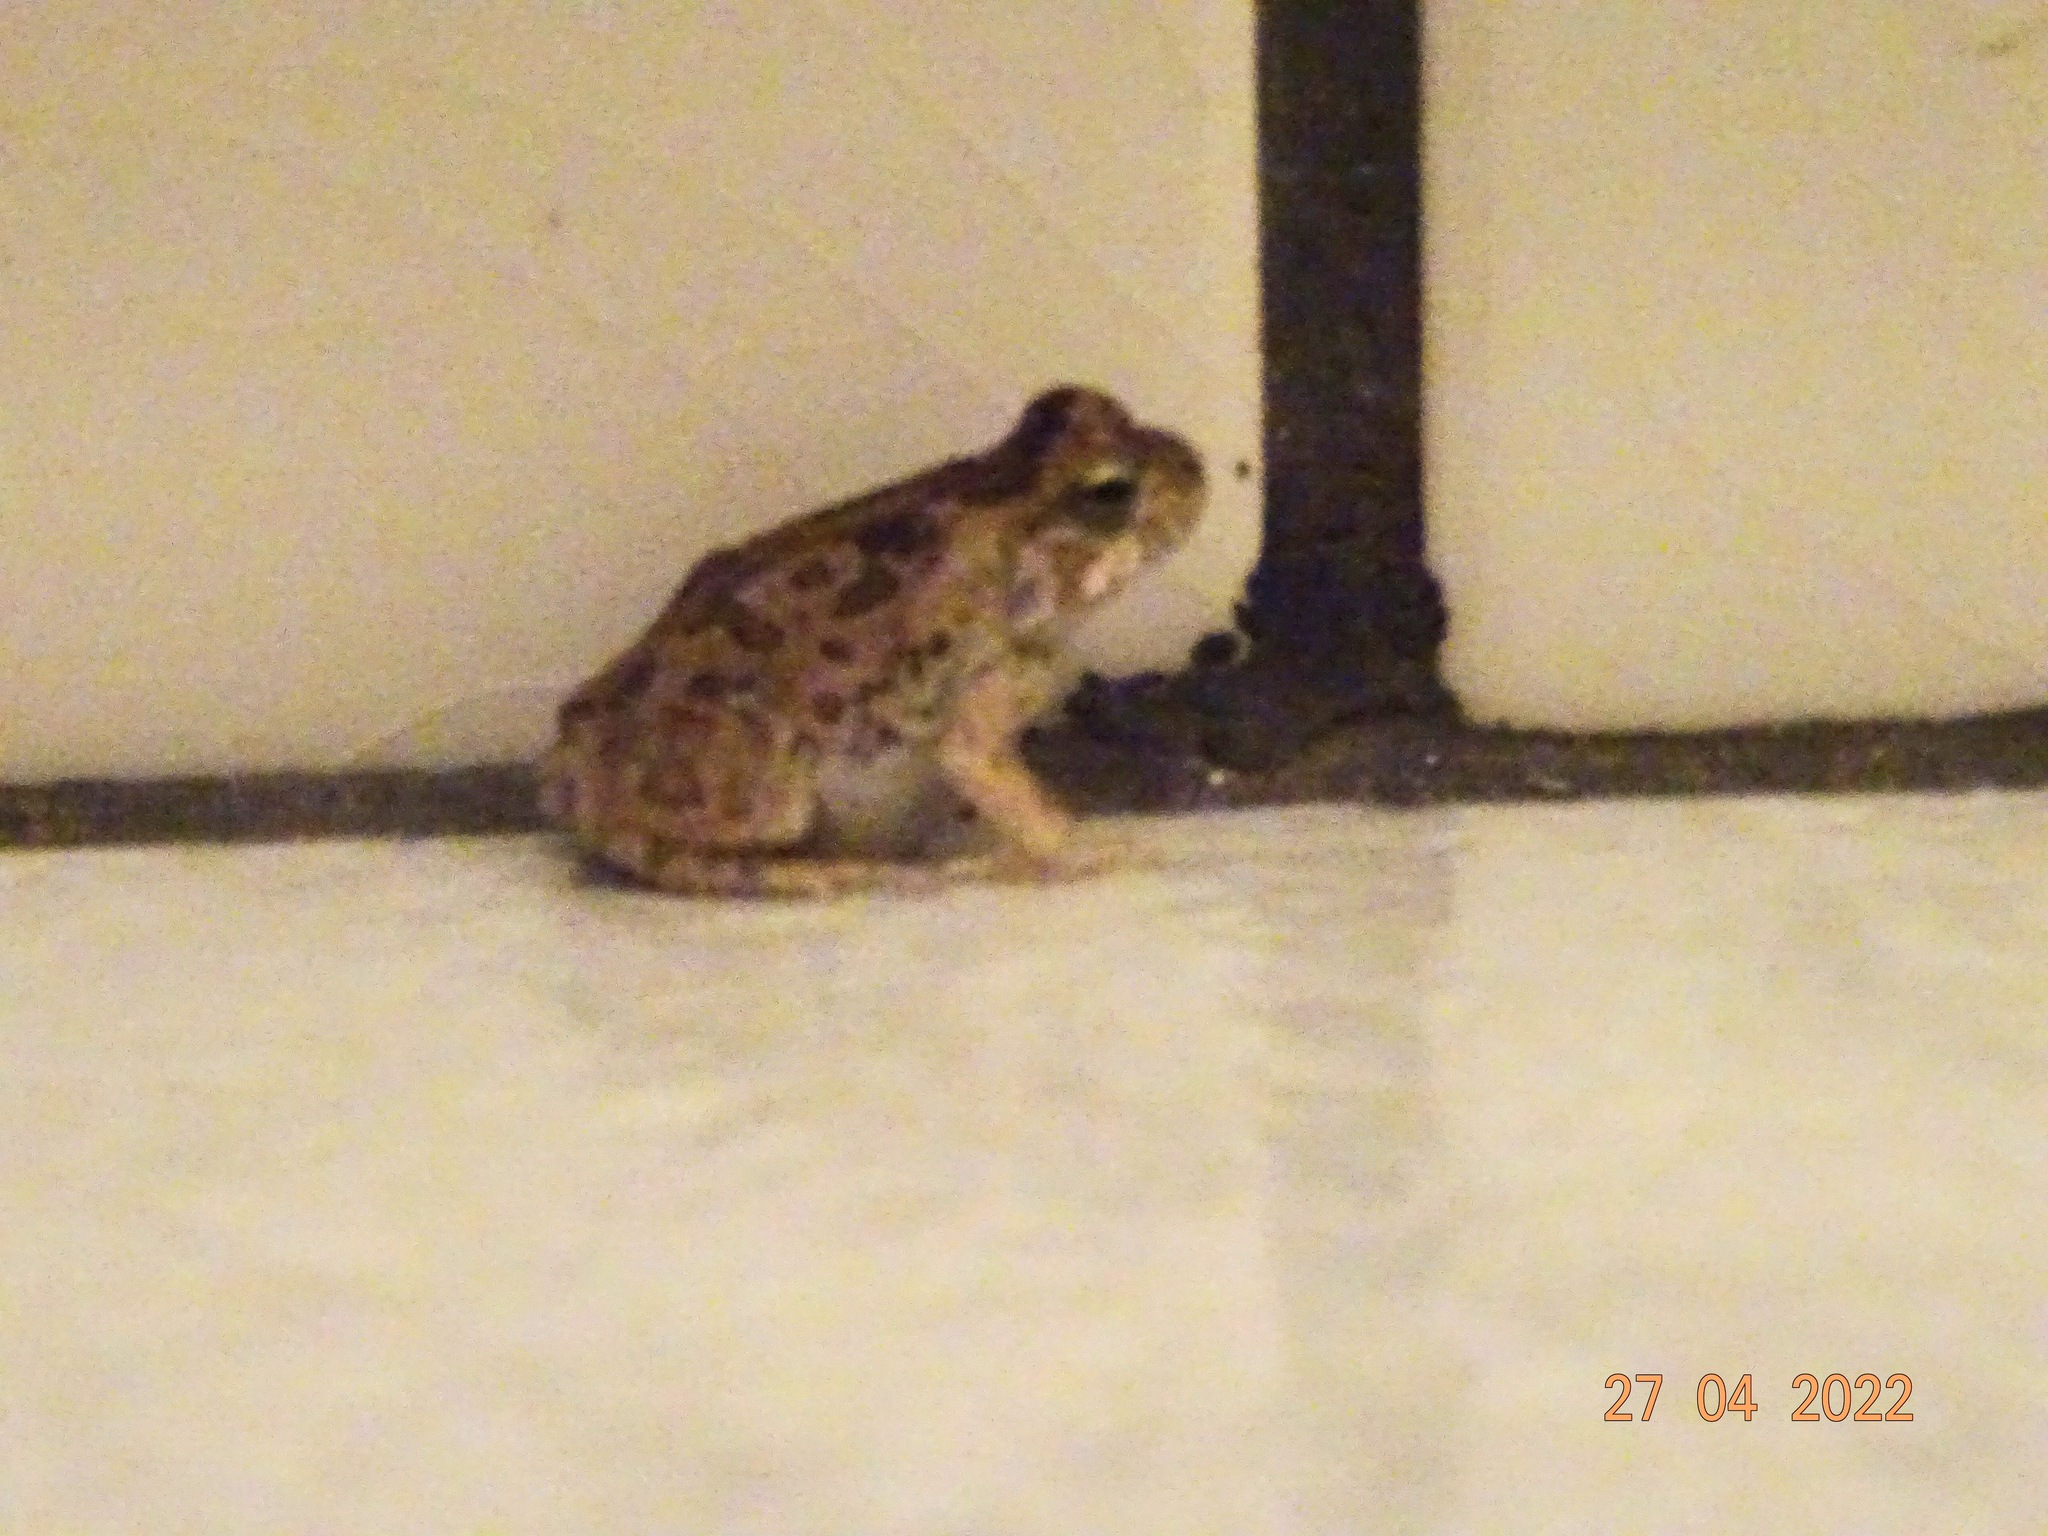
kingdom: Animalia
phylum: Chordata
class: Amphibia
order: Anura
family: Bufonidae
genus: Rhinella
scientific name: Rhinella diptycha
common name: Cope's toad
